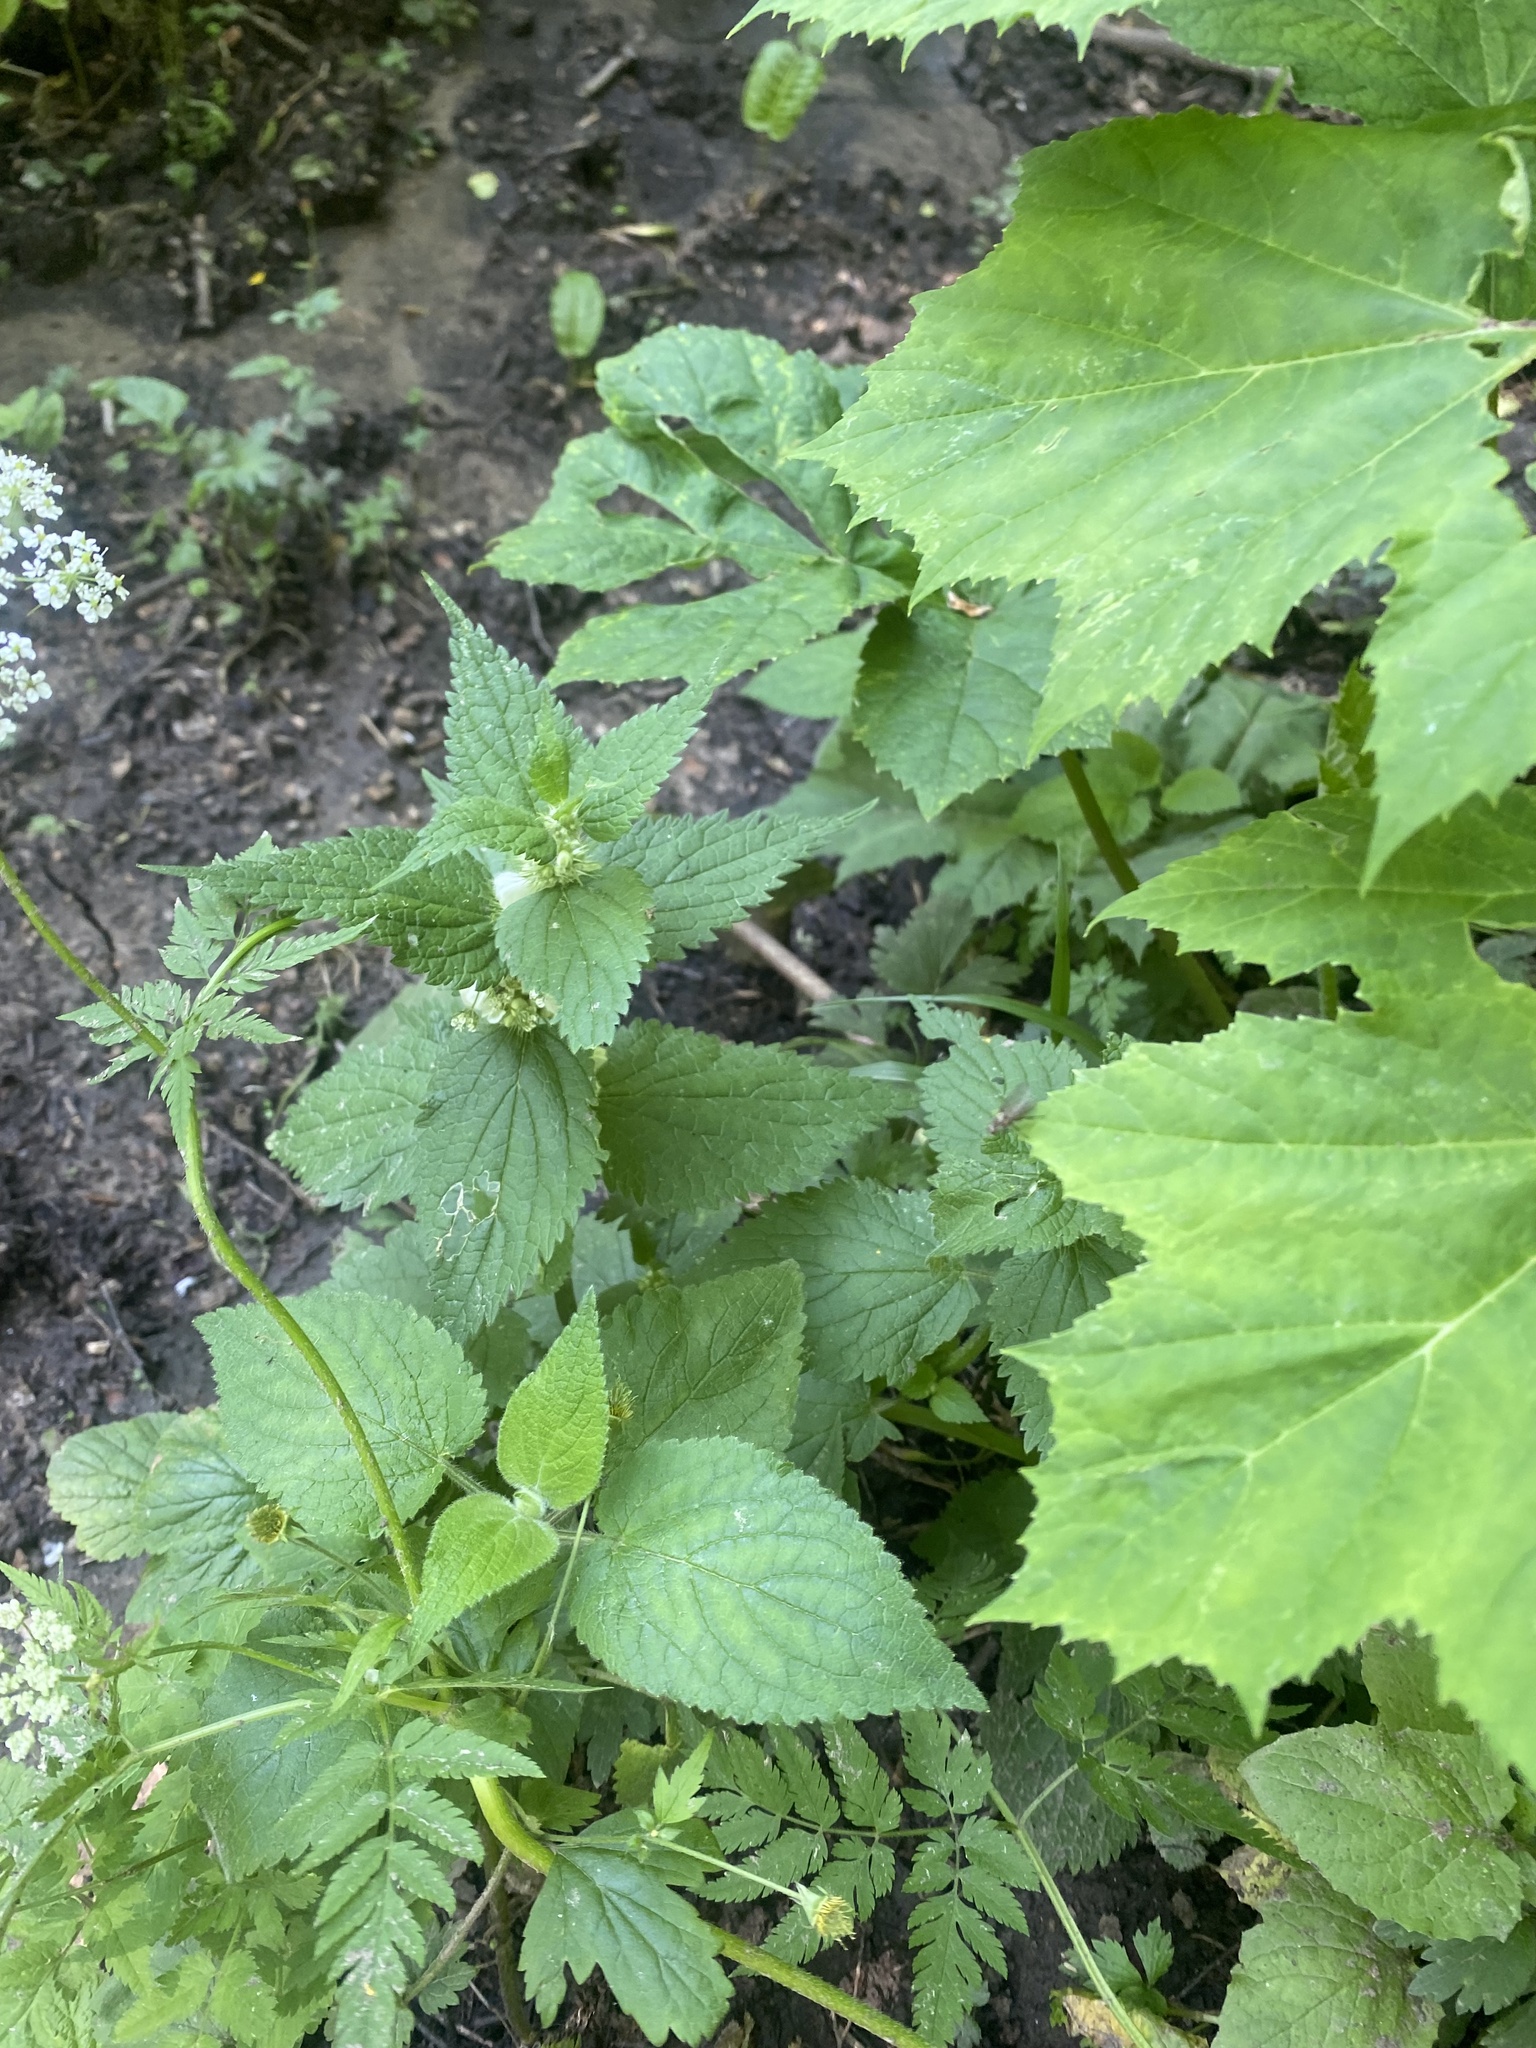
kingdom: Plantae
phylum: Tracheophyta
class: Magnoliopsida
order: Lamiales
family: Lamiaceae
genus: Lamium
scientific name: Lamium album
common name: White dead-nettle
